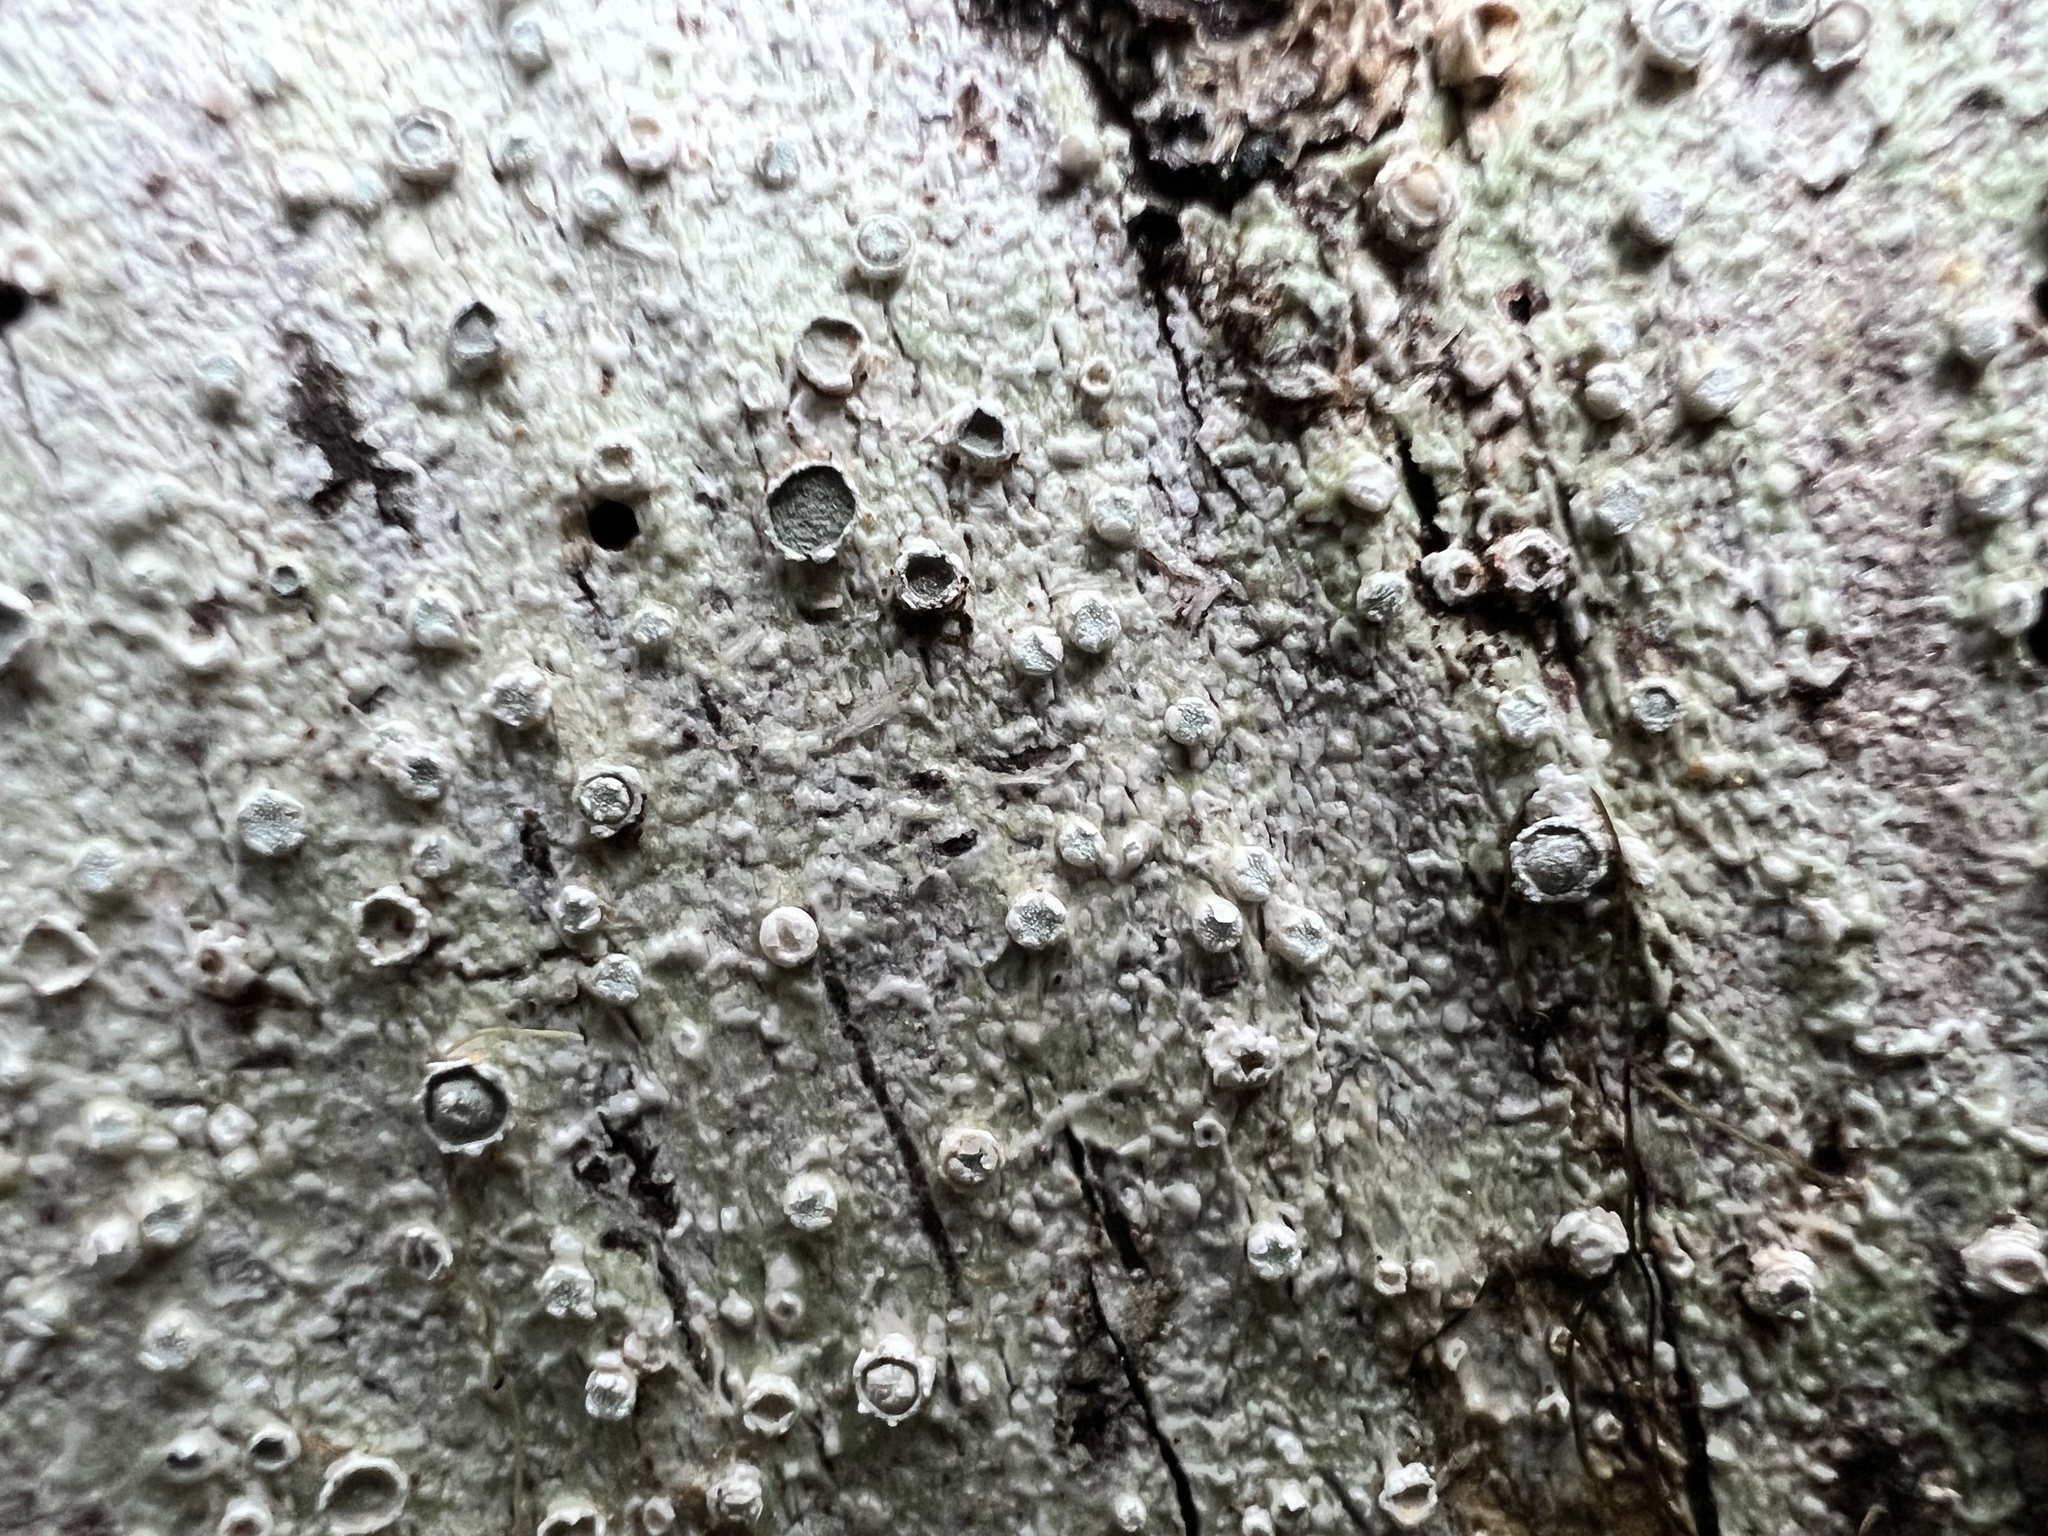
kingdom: Fungi
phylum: Ascomycota
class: Lecanoromycetes
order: Pertusariales
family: Pertusariaceae
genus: Pertusaria
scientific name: Pertusaria subambigens
